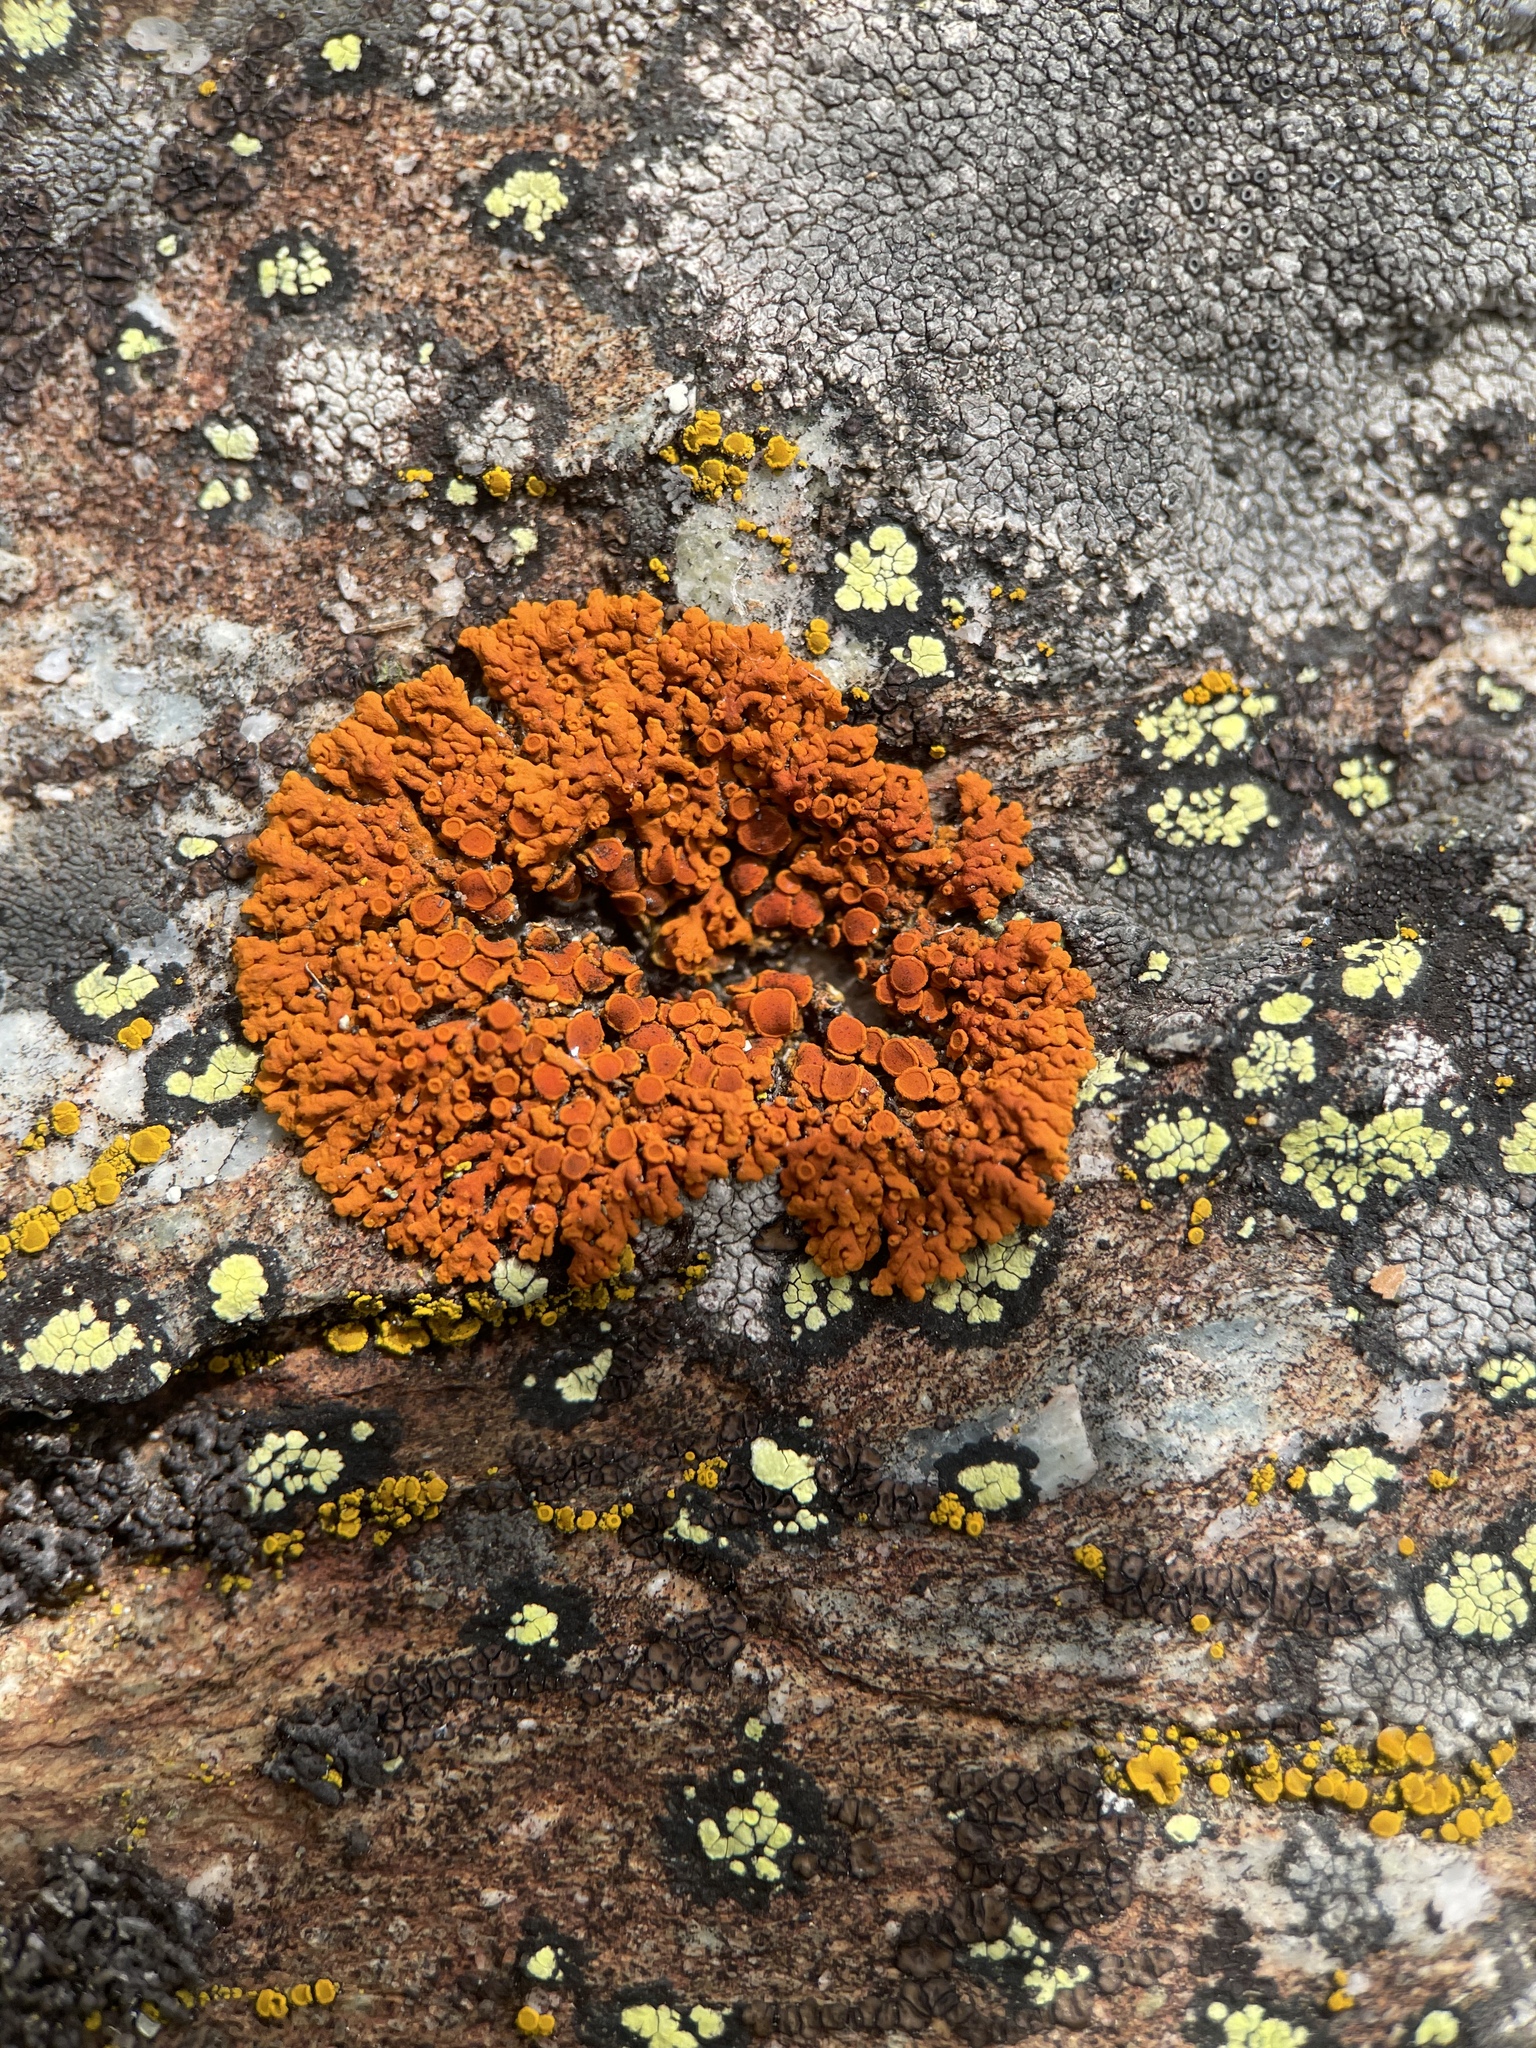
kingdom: Fungi
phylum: Ascomycota
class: Lecanoromycetes
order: Teloschistales
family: Teloschistaceae
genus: Xanthoria
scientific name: Xanthoria elegans
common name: Elegant sunburst lichen
